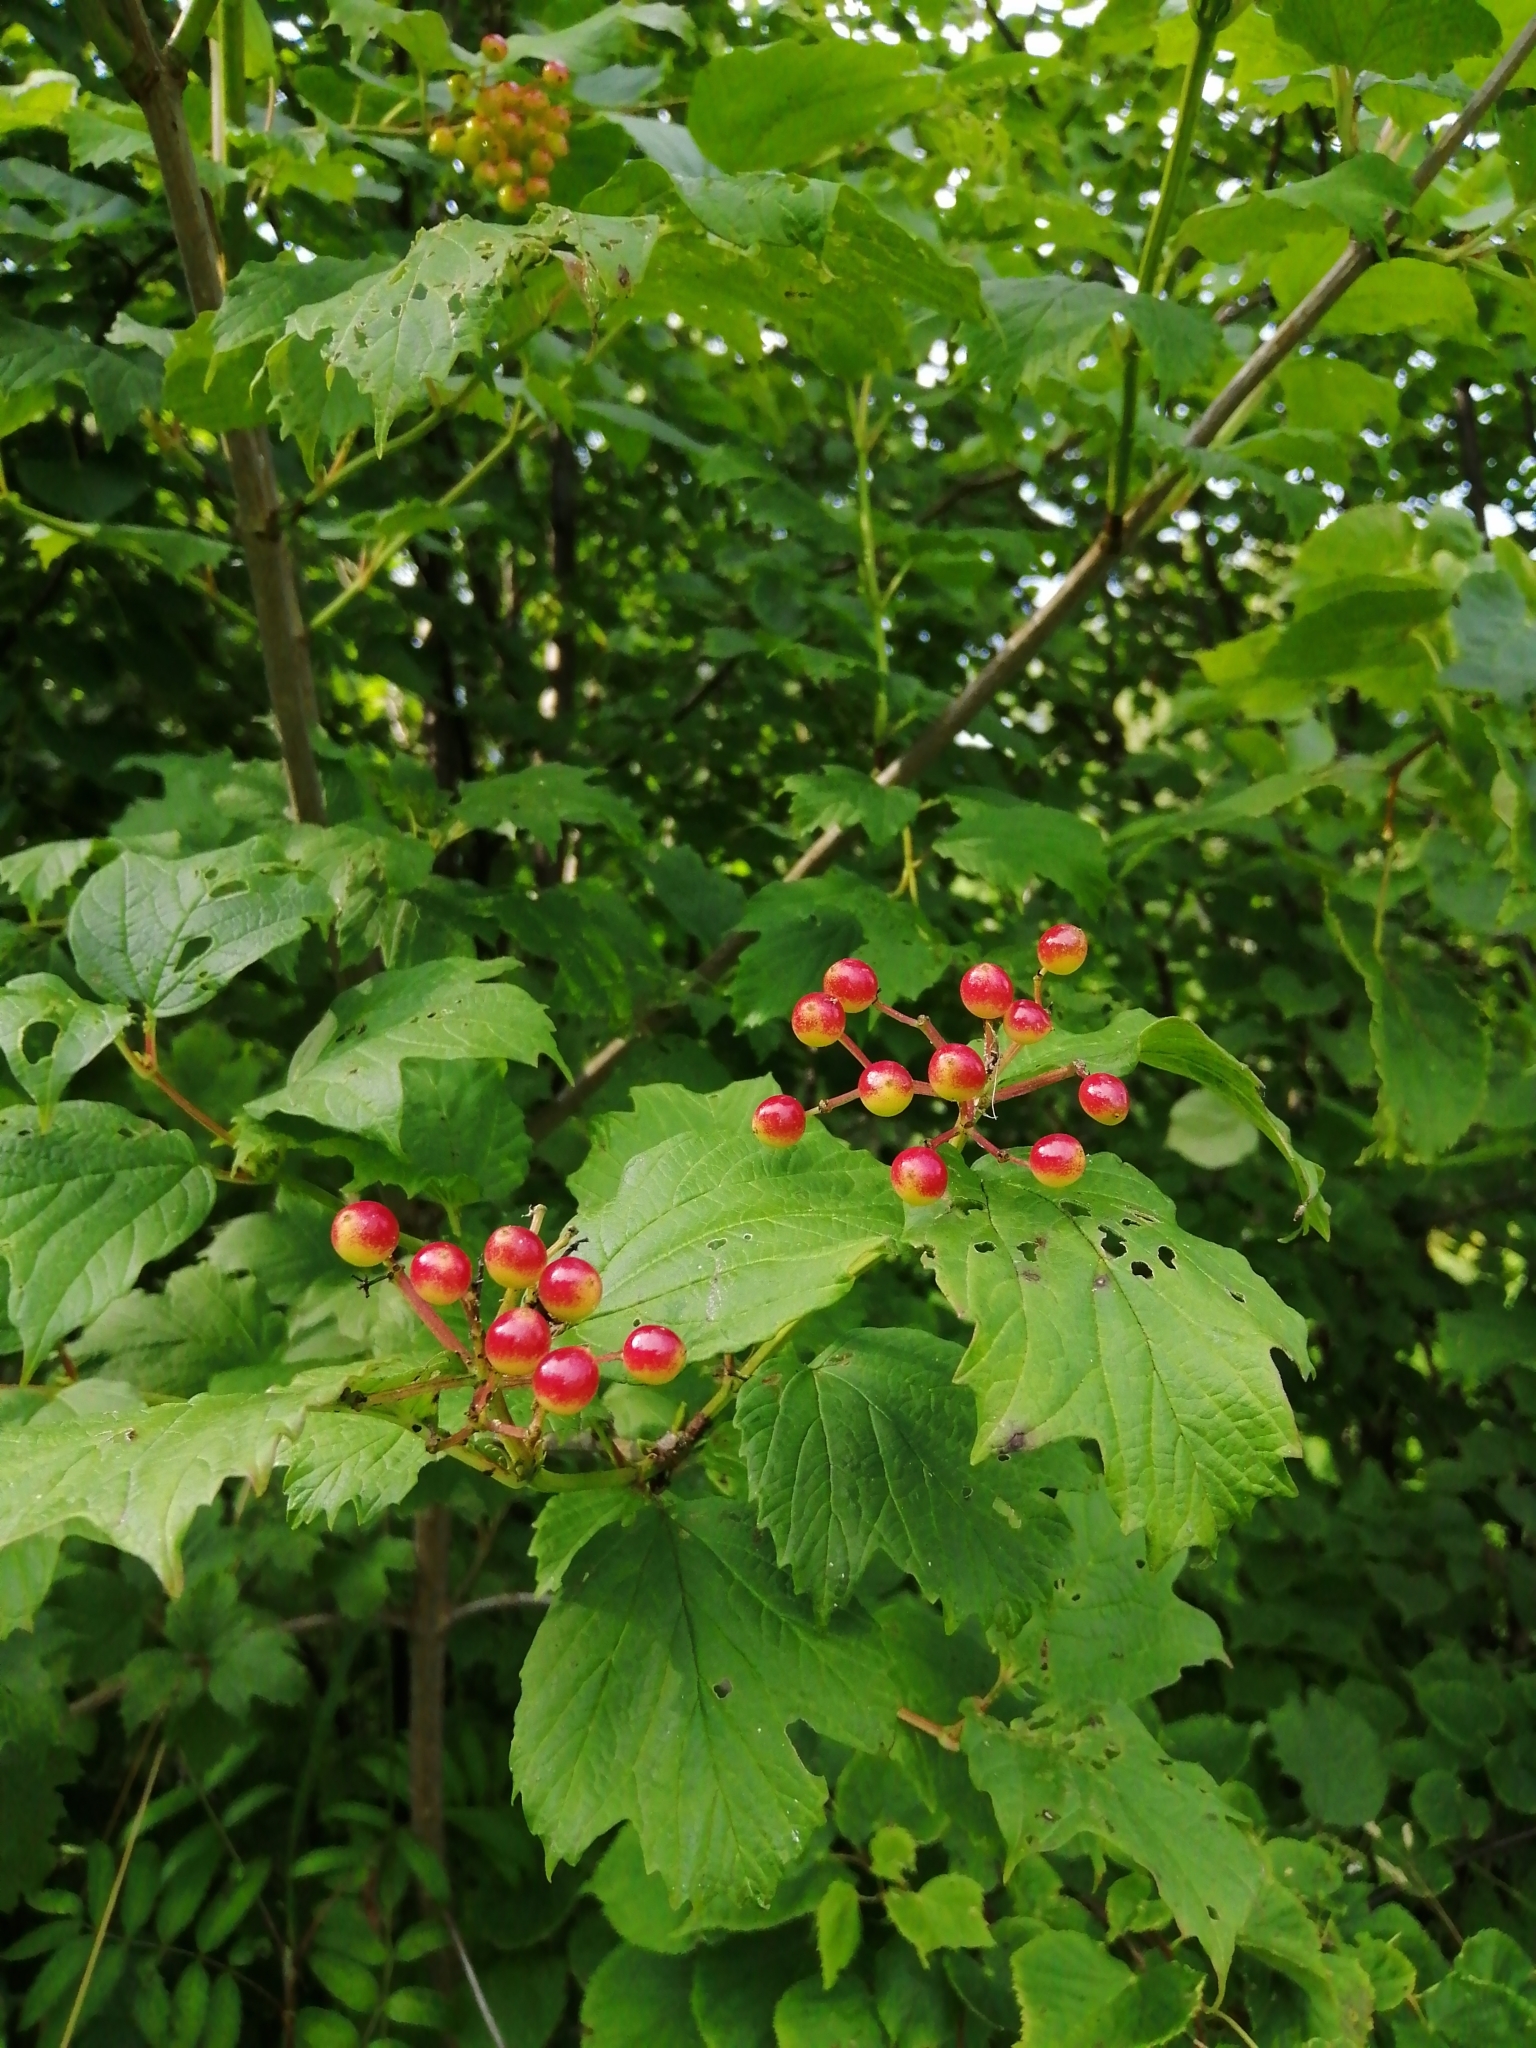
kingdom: Plantae
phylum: Tracheophyta
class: Magnoliopsida
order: Dipsacales
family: Viburnaceae
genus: Viburnum
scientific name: Viburnum opulus
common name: Guelder-rose
